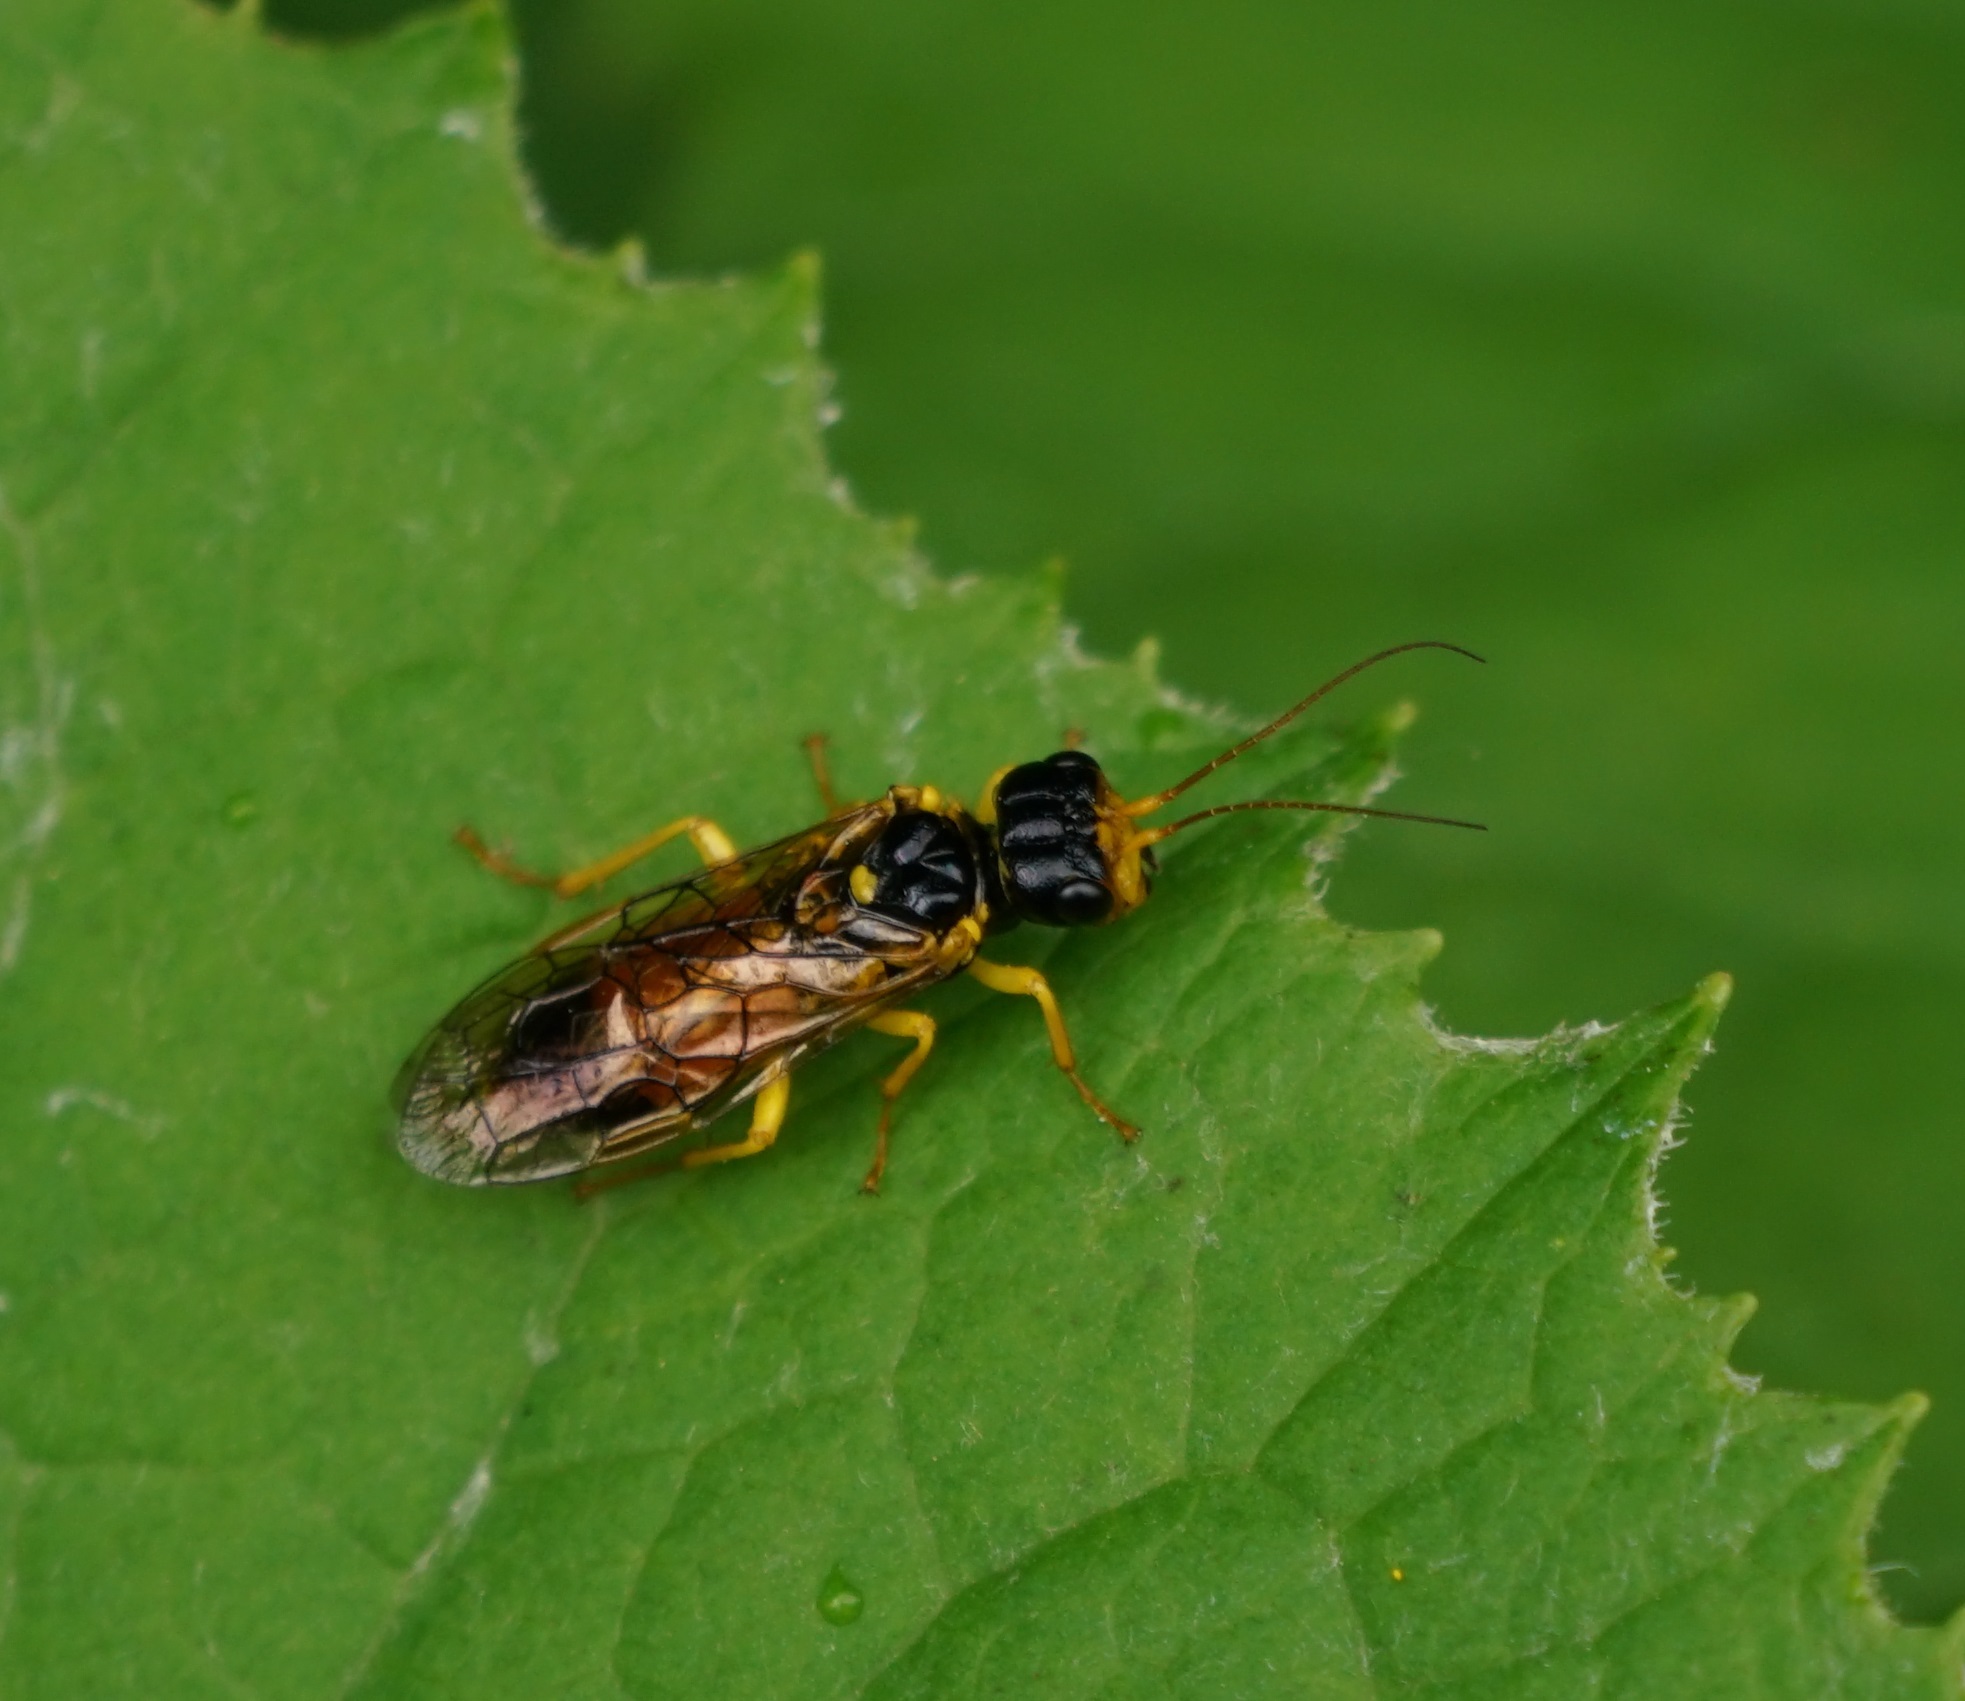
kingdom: Animalia
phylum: Arthropoda
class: Insecta
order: Hymenoptera
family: Pamphiliidae
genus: Pamphilius
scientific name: Pamphilius aurantiacus
